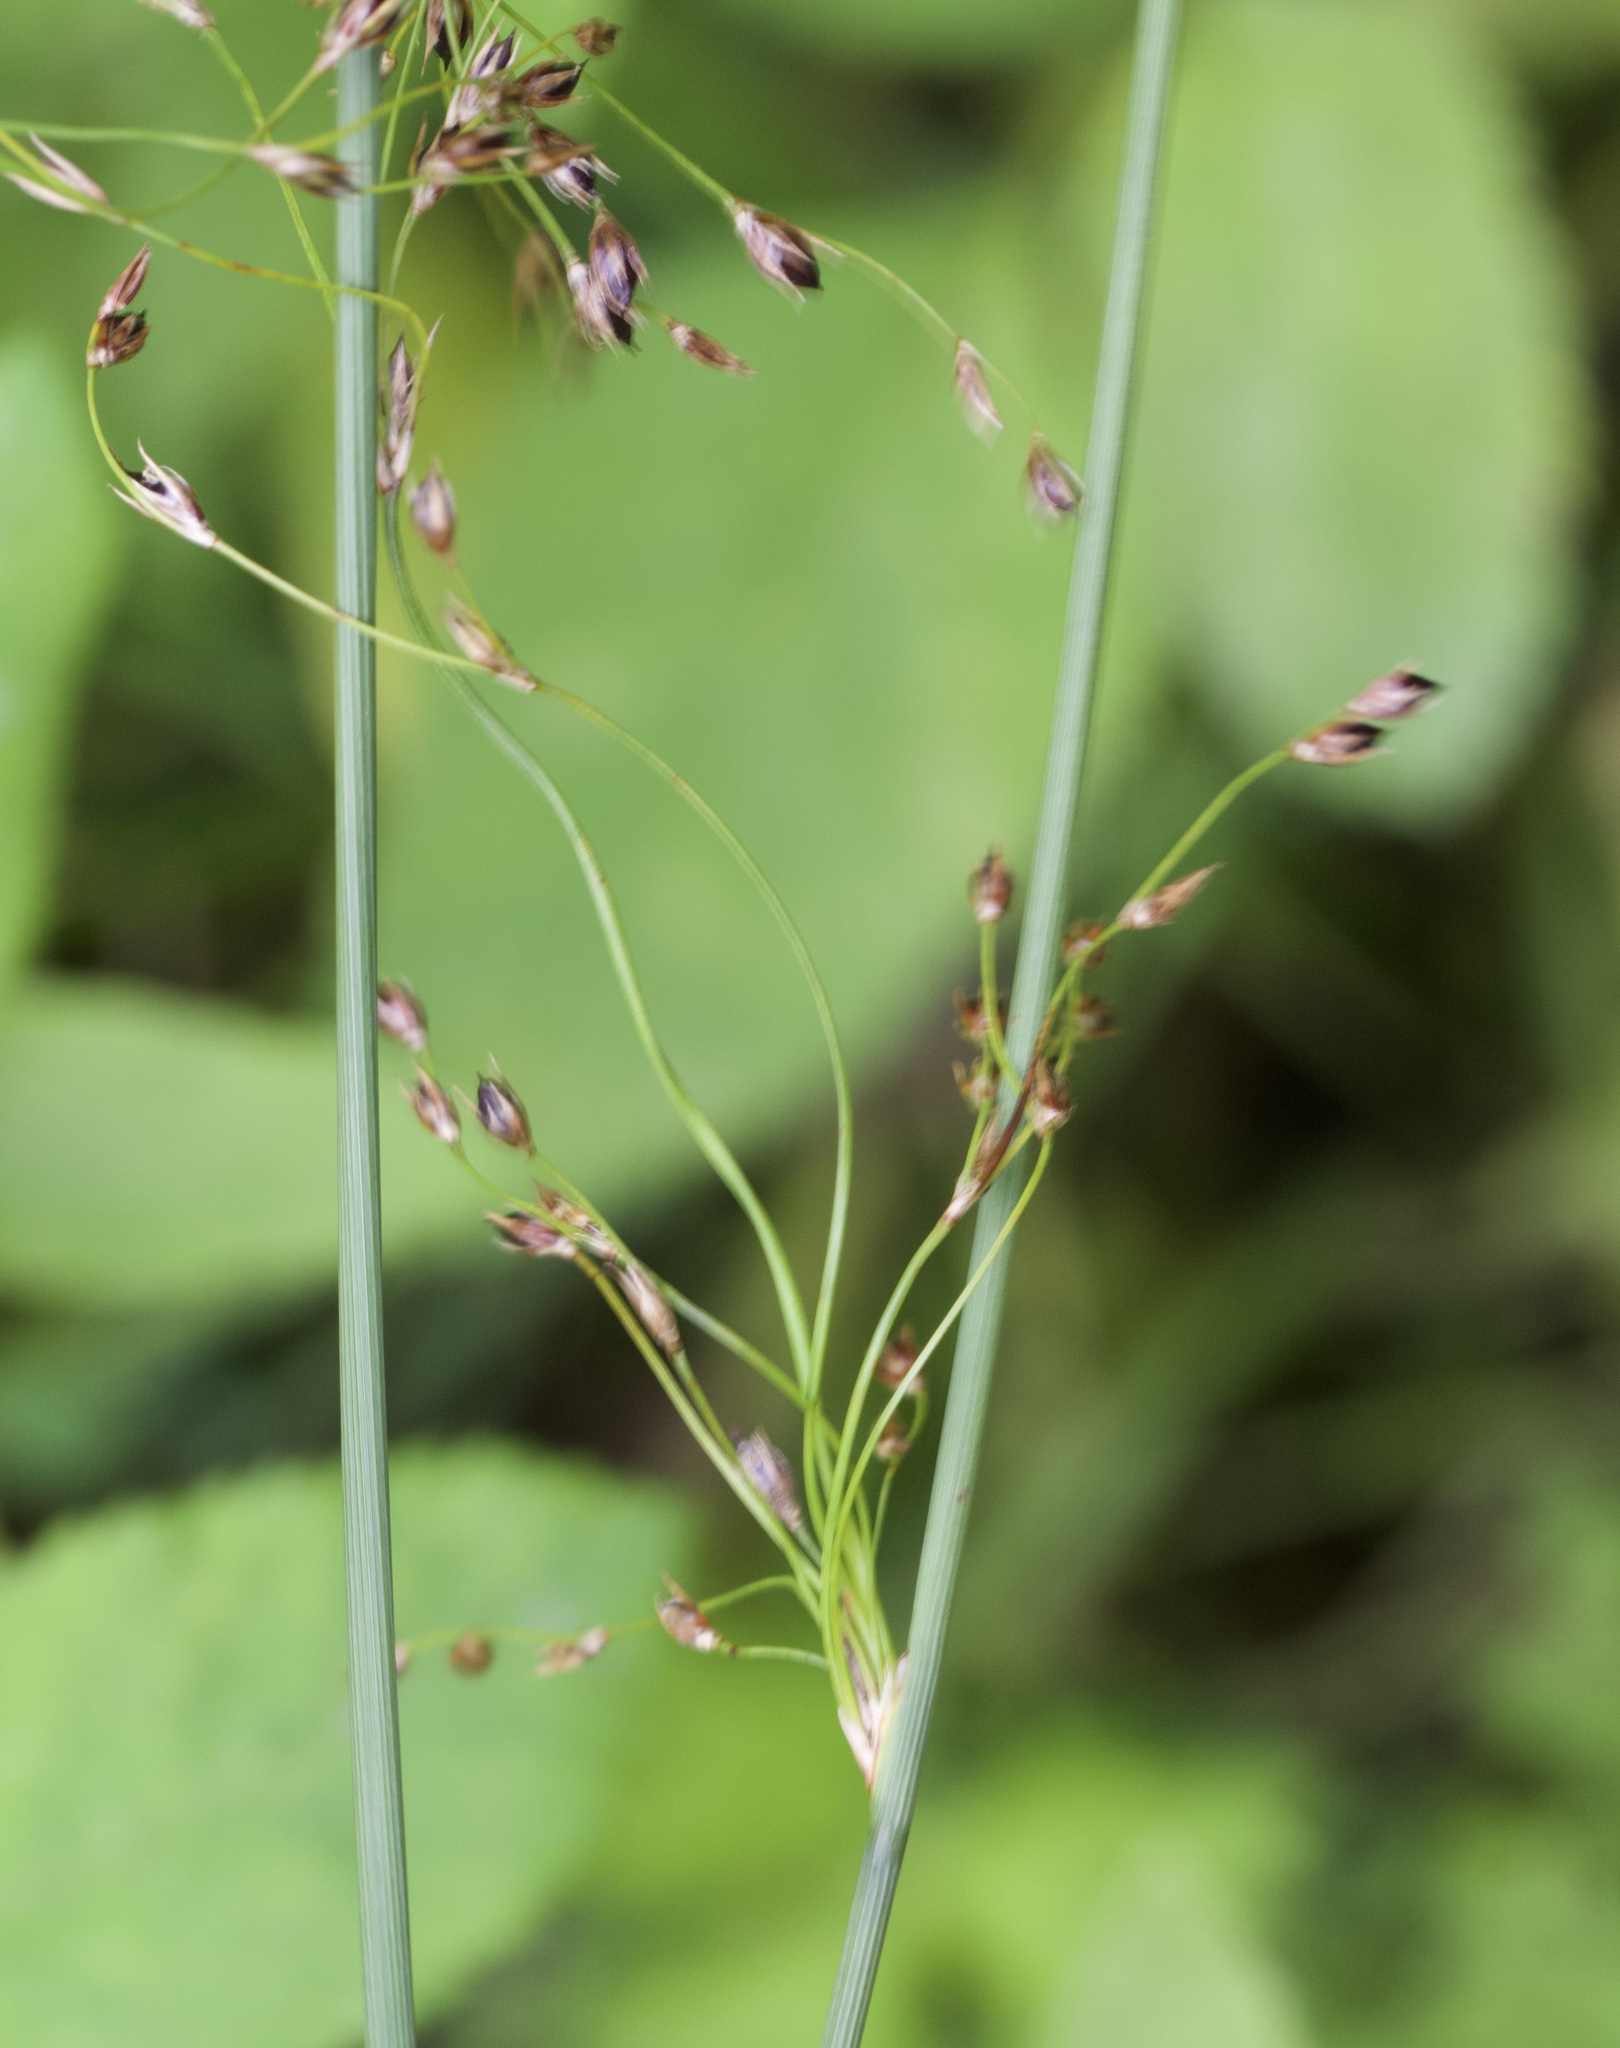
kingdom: Plantae
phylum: Tracheophyta
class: Liliopsida
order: Poales
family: Juncaceae
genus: Juncus
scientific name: Juncus inflexus
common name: Hard rush
